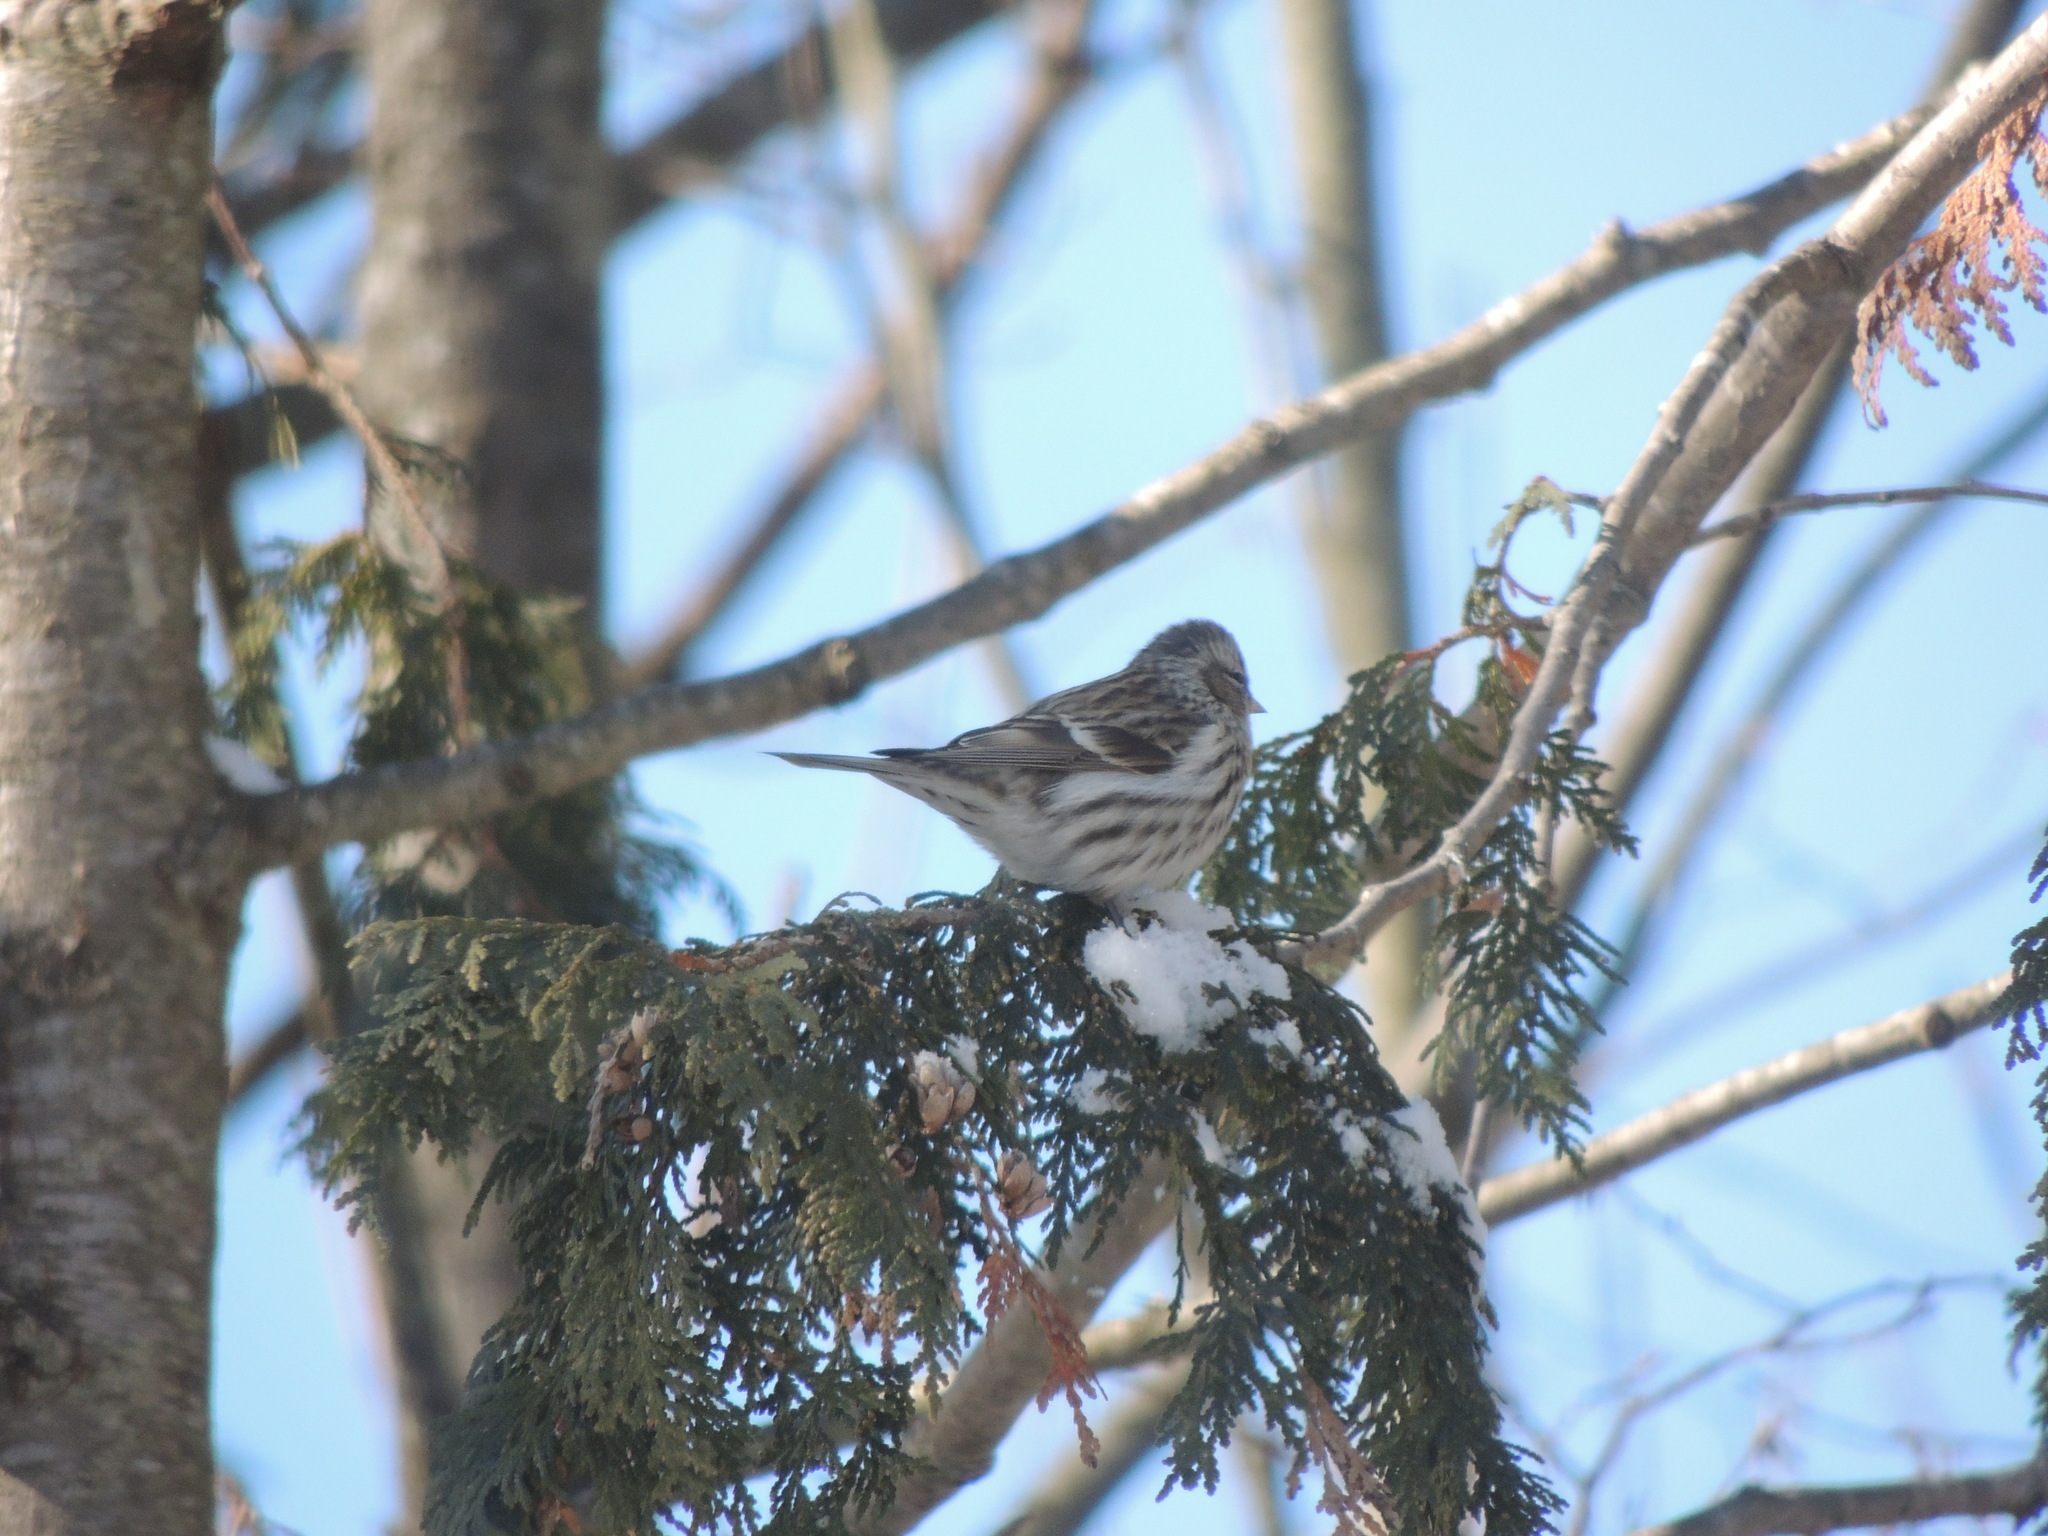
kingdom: Animalia
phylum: Chordata
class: Aves
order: Passeriformes
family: Fringillidae
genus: Acanthis
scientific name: Acanthis flammea
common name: Common redpoll
